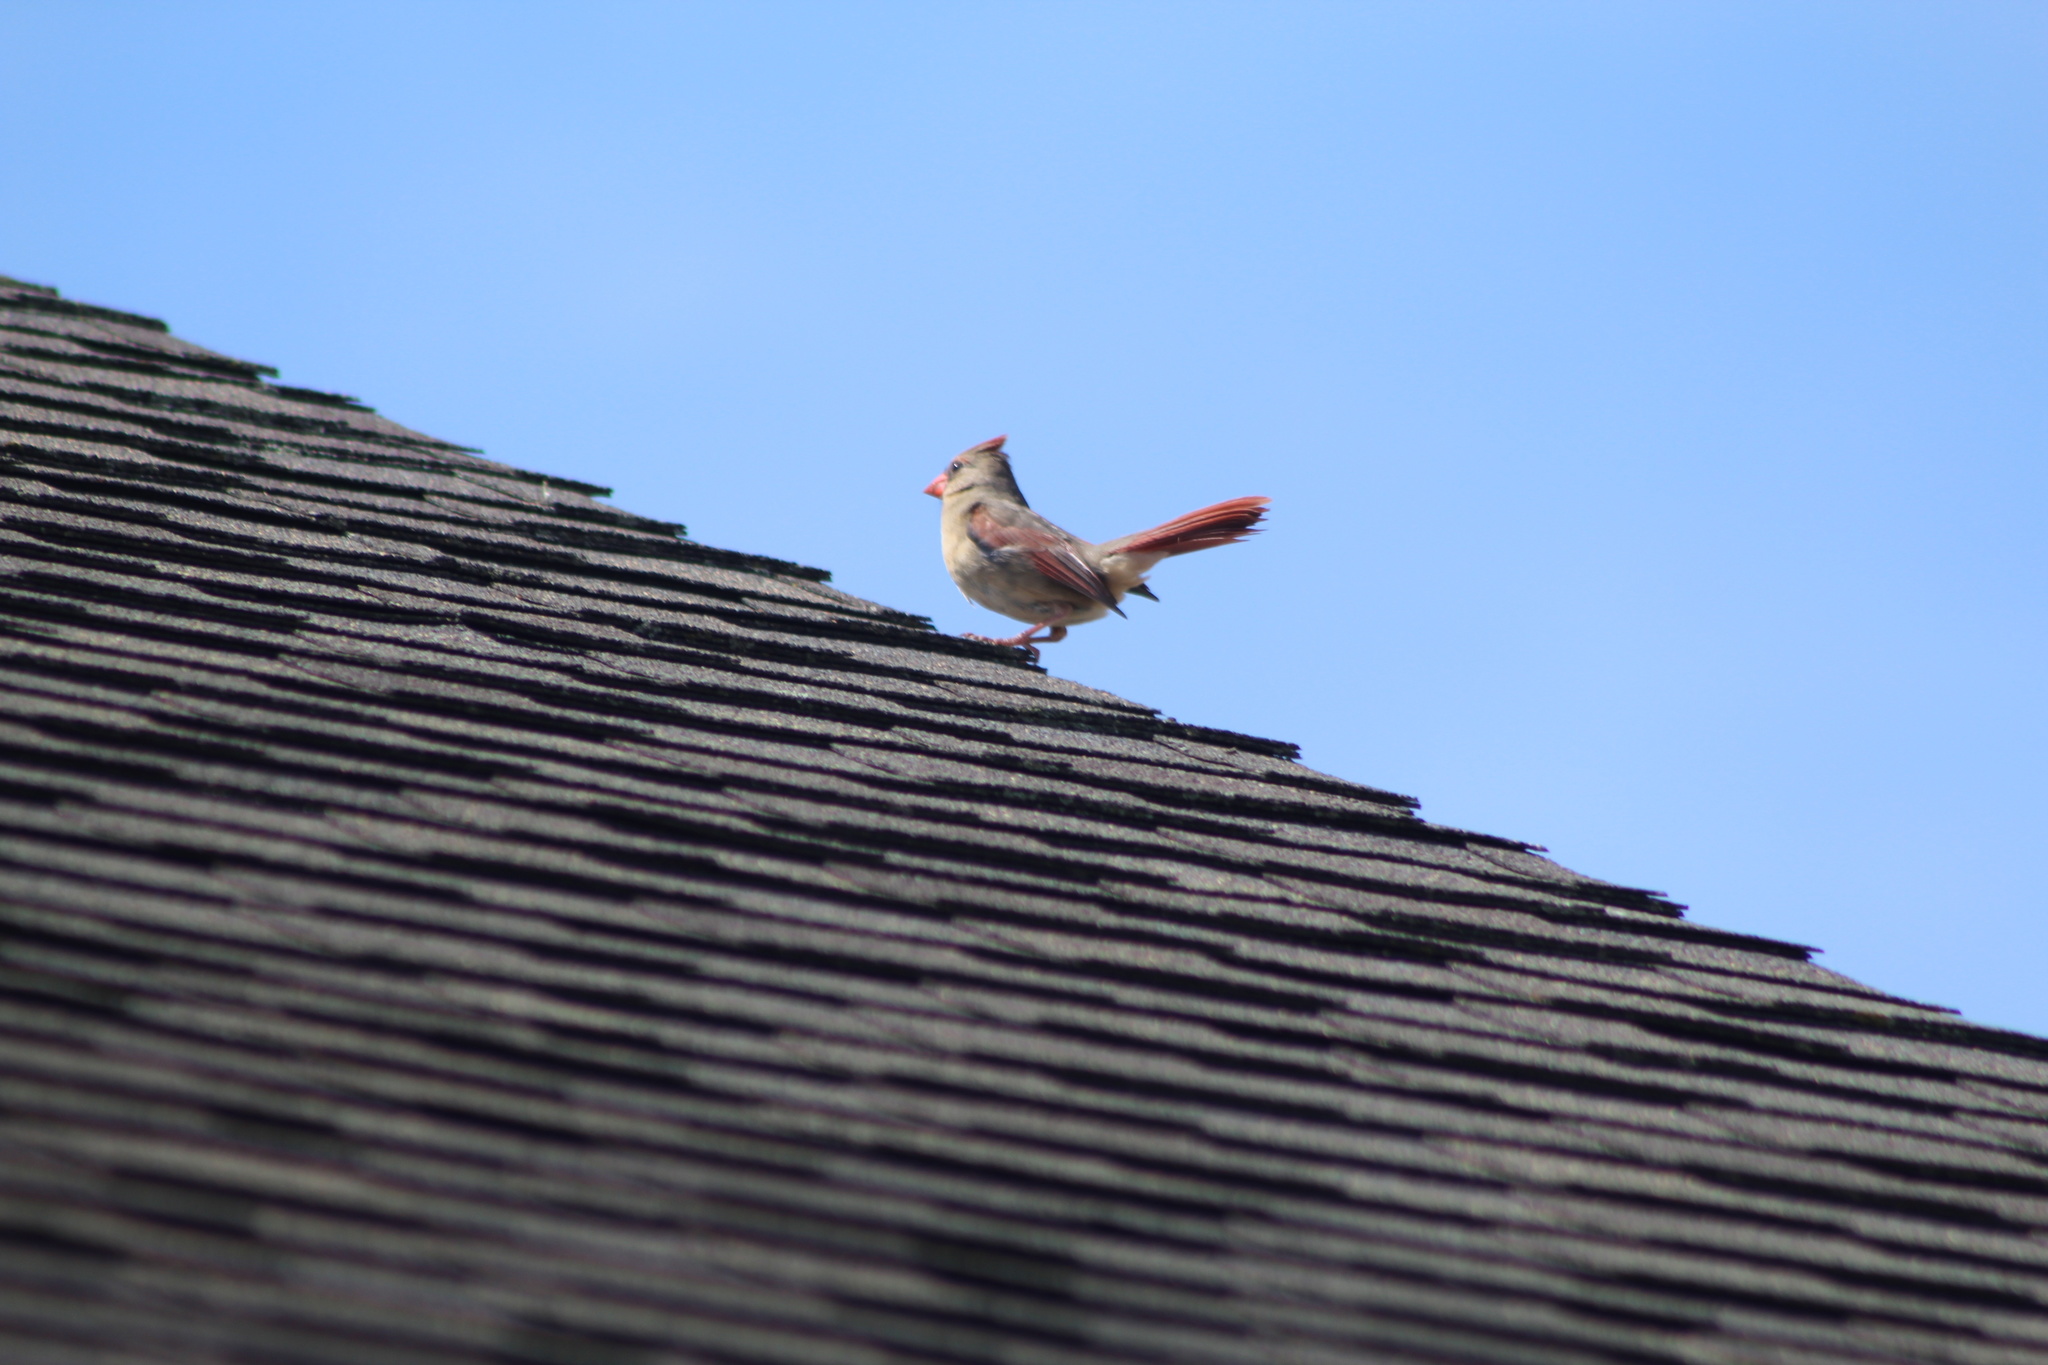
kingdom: Animalia
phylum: Chordata
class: Aves
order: Passeriformes
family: Cardinalidae
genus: Cardinalis
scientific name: Cardinalis cardinalis
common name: Northern cardinal
